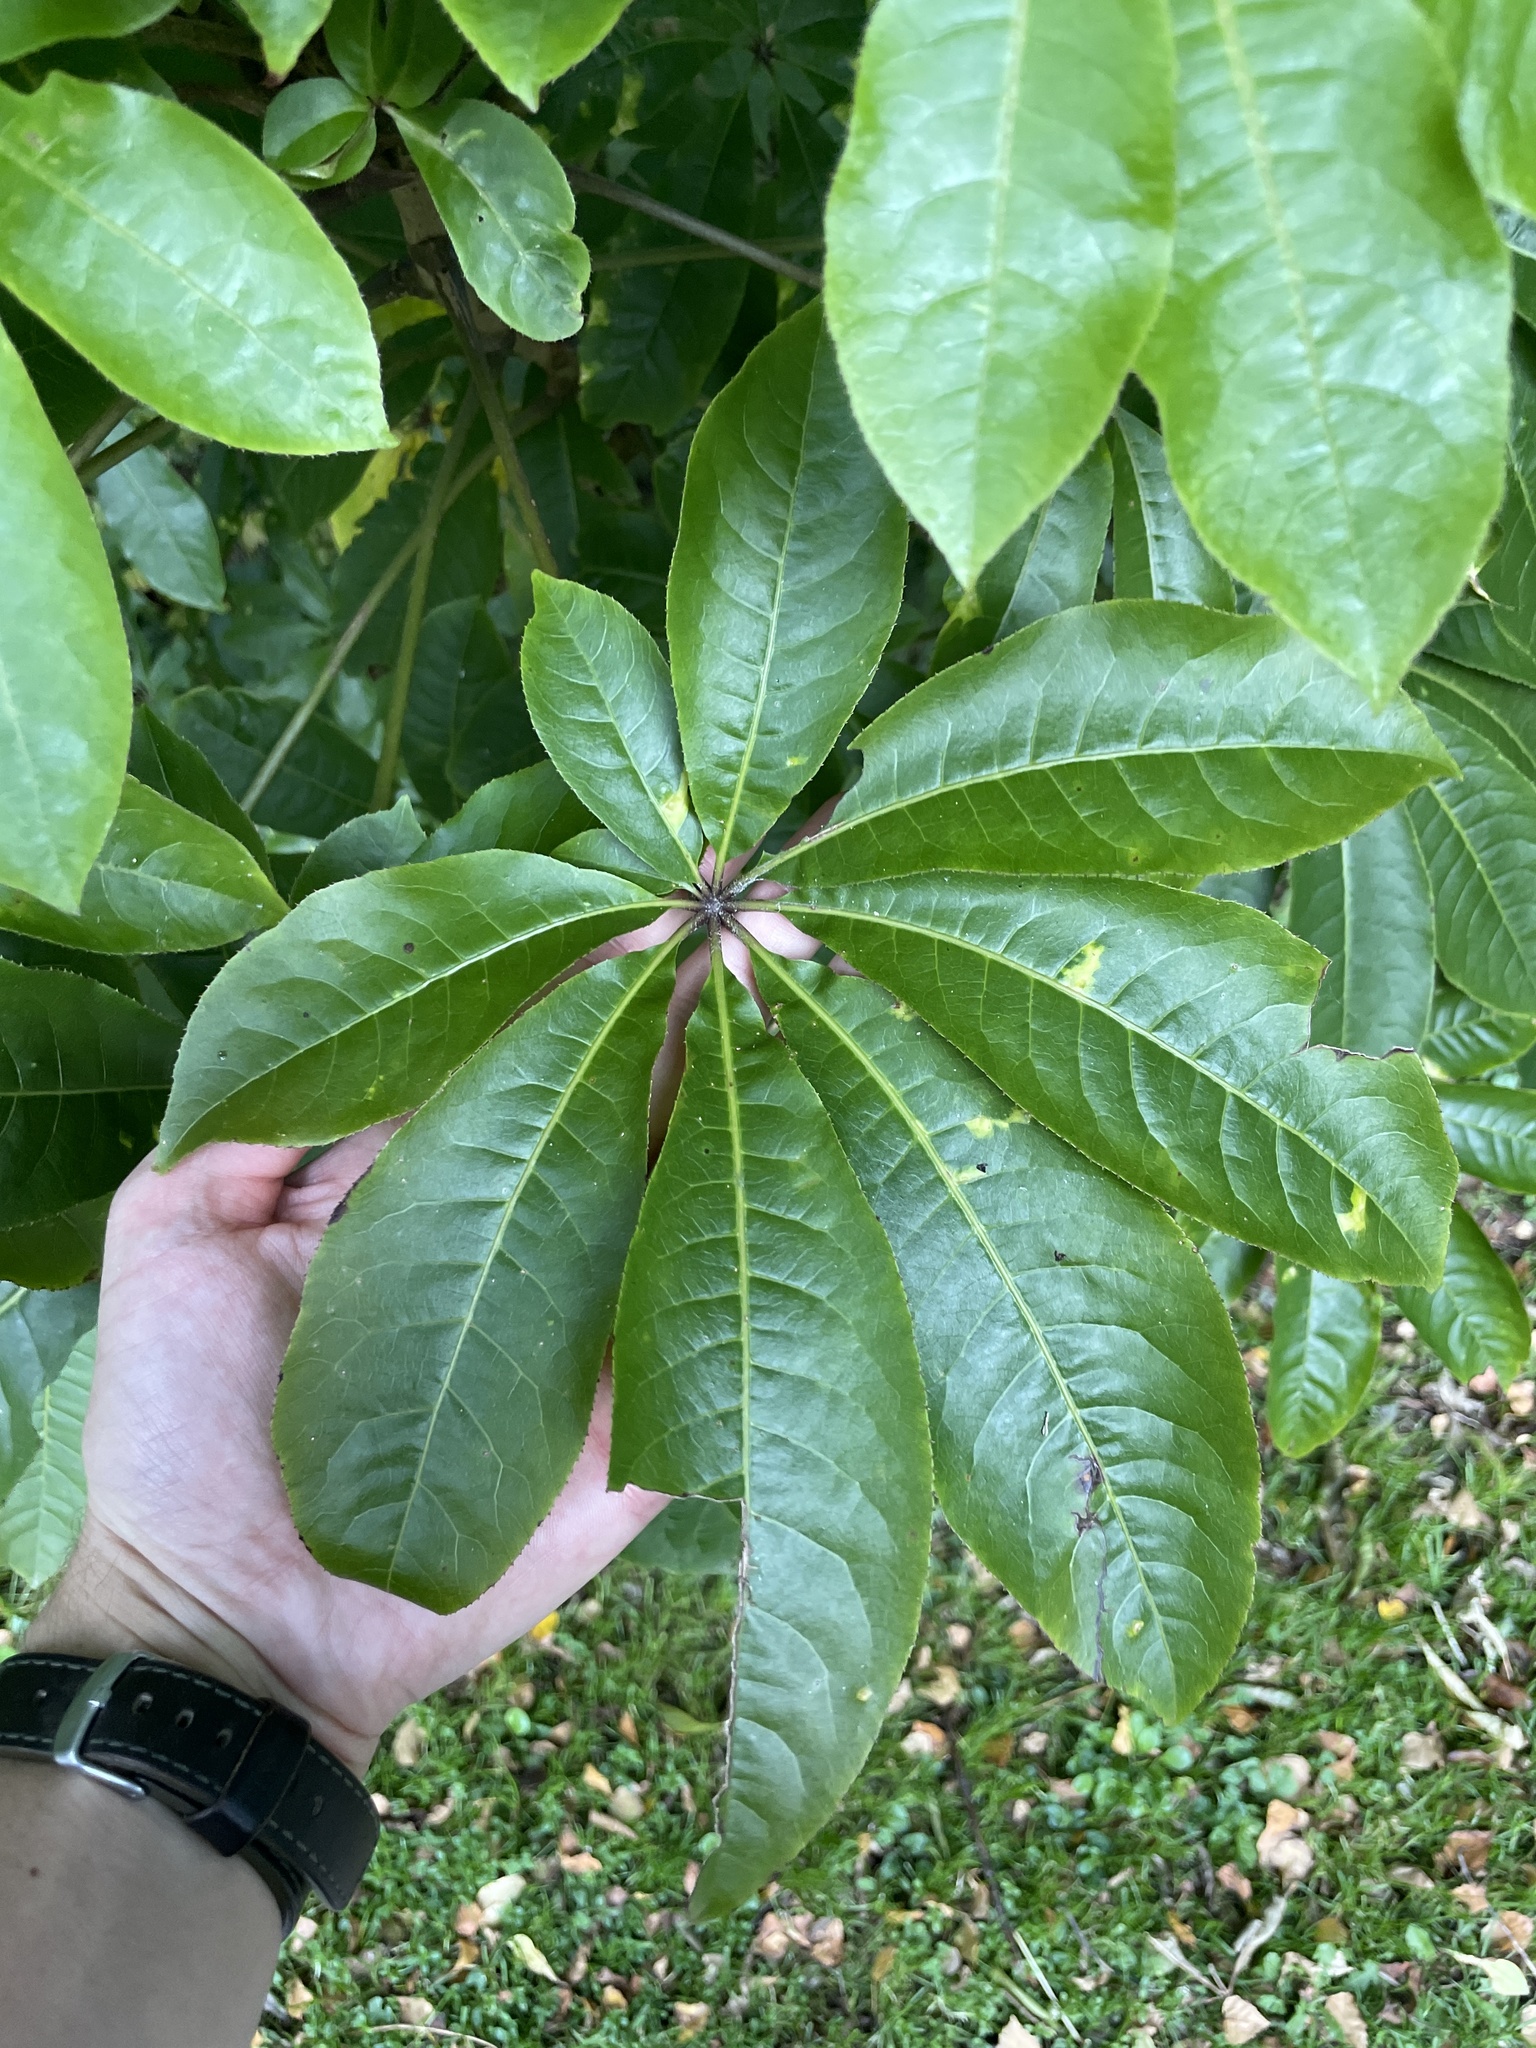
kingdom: Plantae
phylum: Tracheophyta
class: Magnoliopsida
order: Apiales
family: Araliaceae
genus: Schefflera
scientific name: Schefflera digitata
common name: Pate
